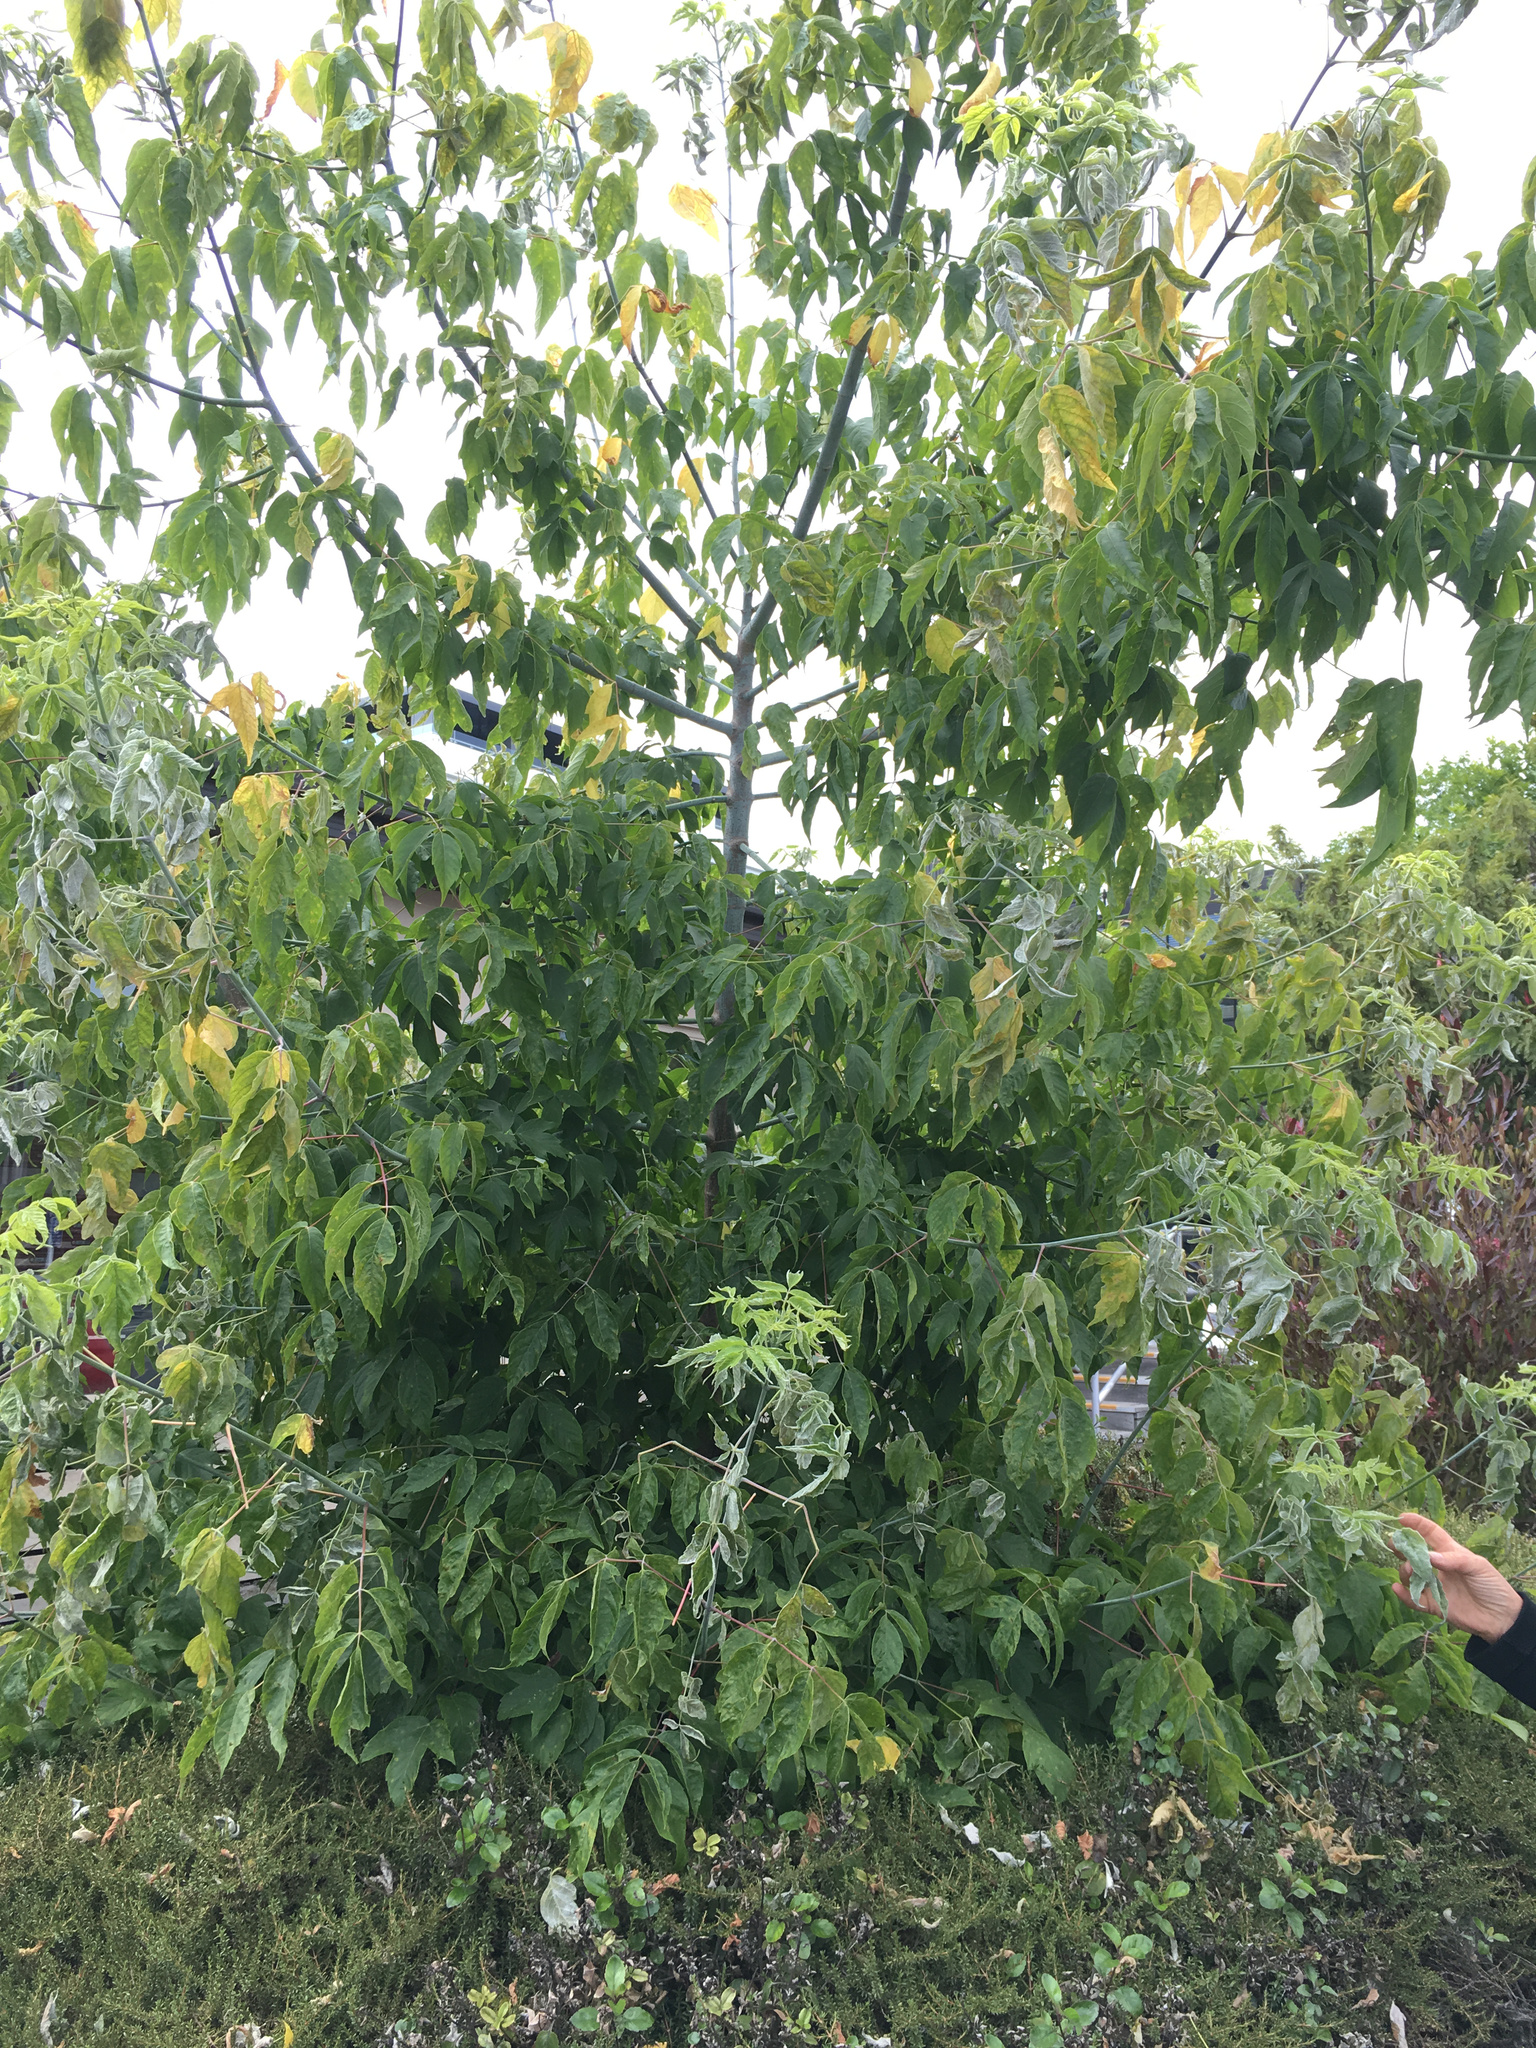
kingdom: Plantae
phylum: Tracheophyta
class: Magnoliopsida
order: Sapindales
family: Sapindaceae
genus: Acer
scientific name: Acer negundo
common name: Ashleaf maple
